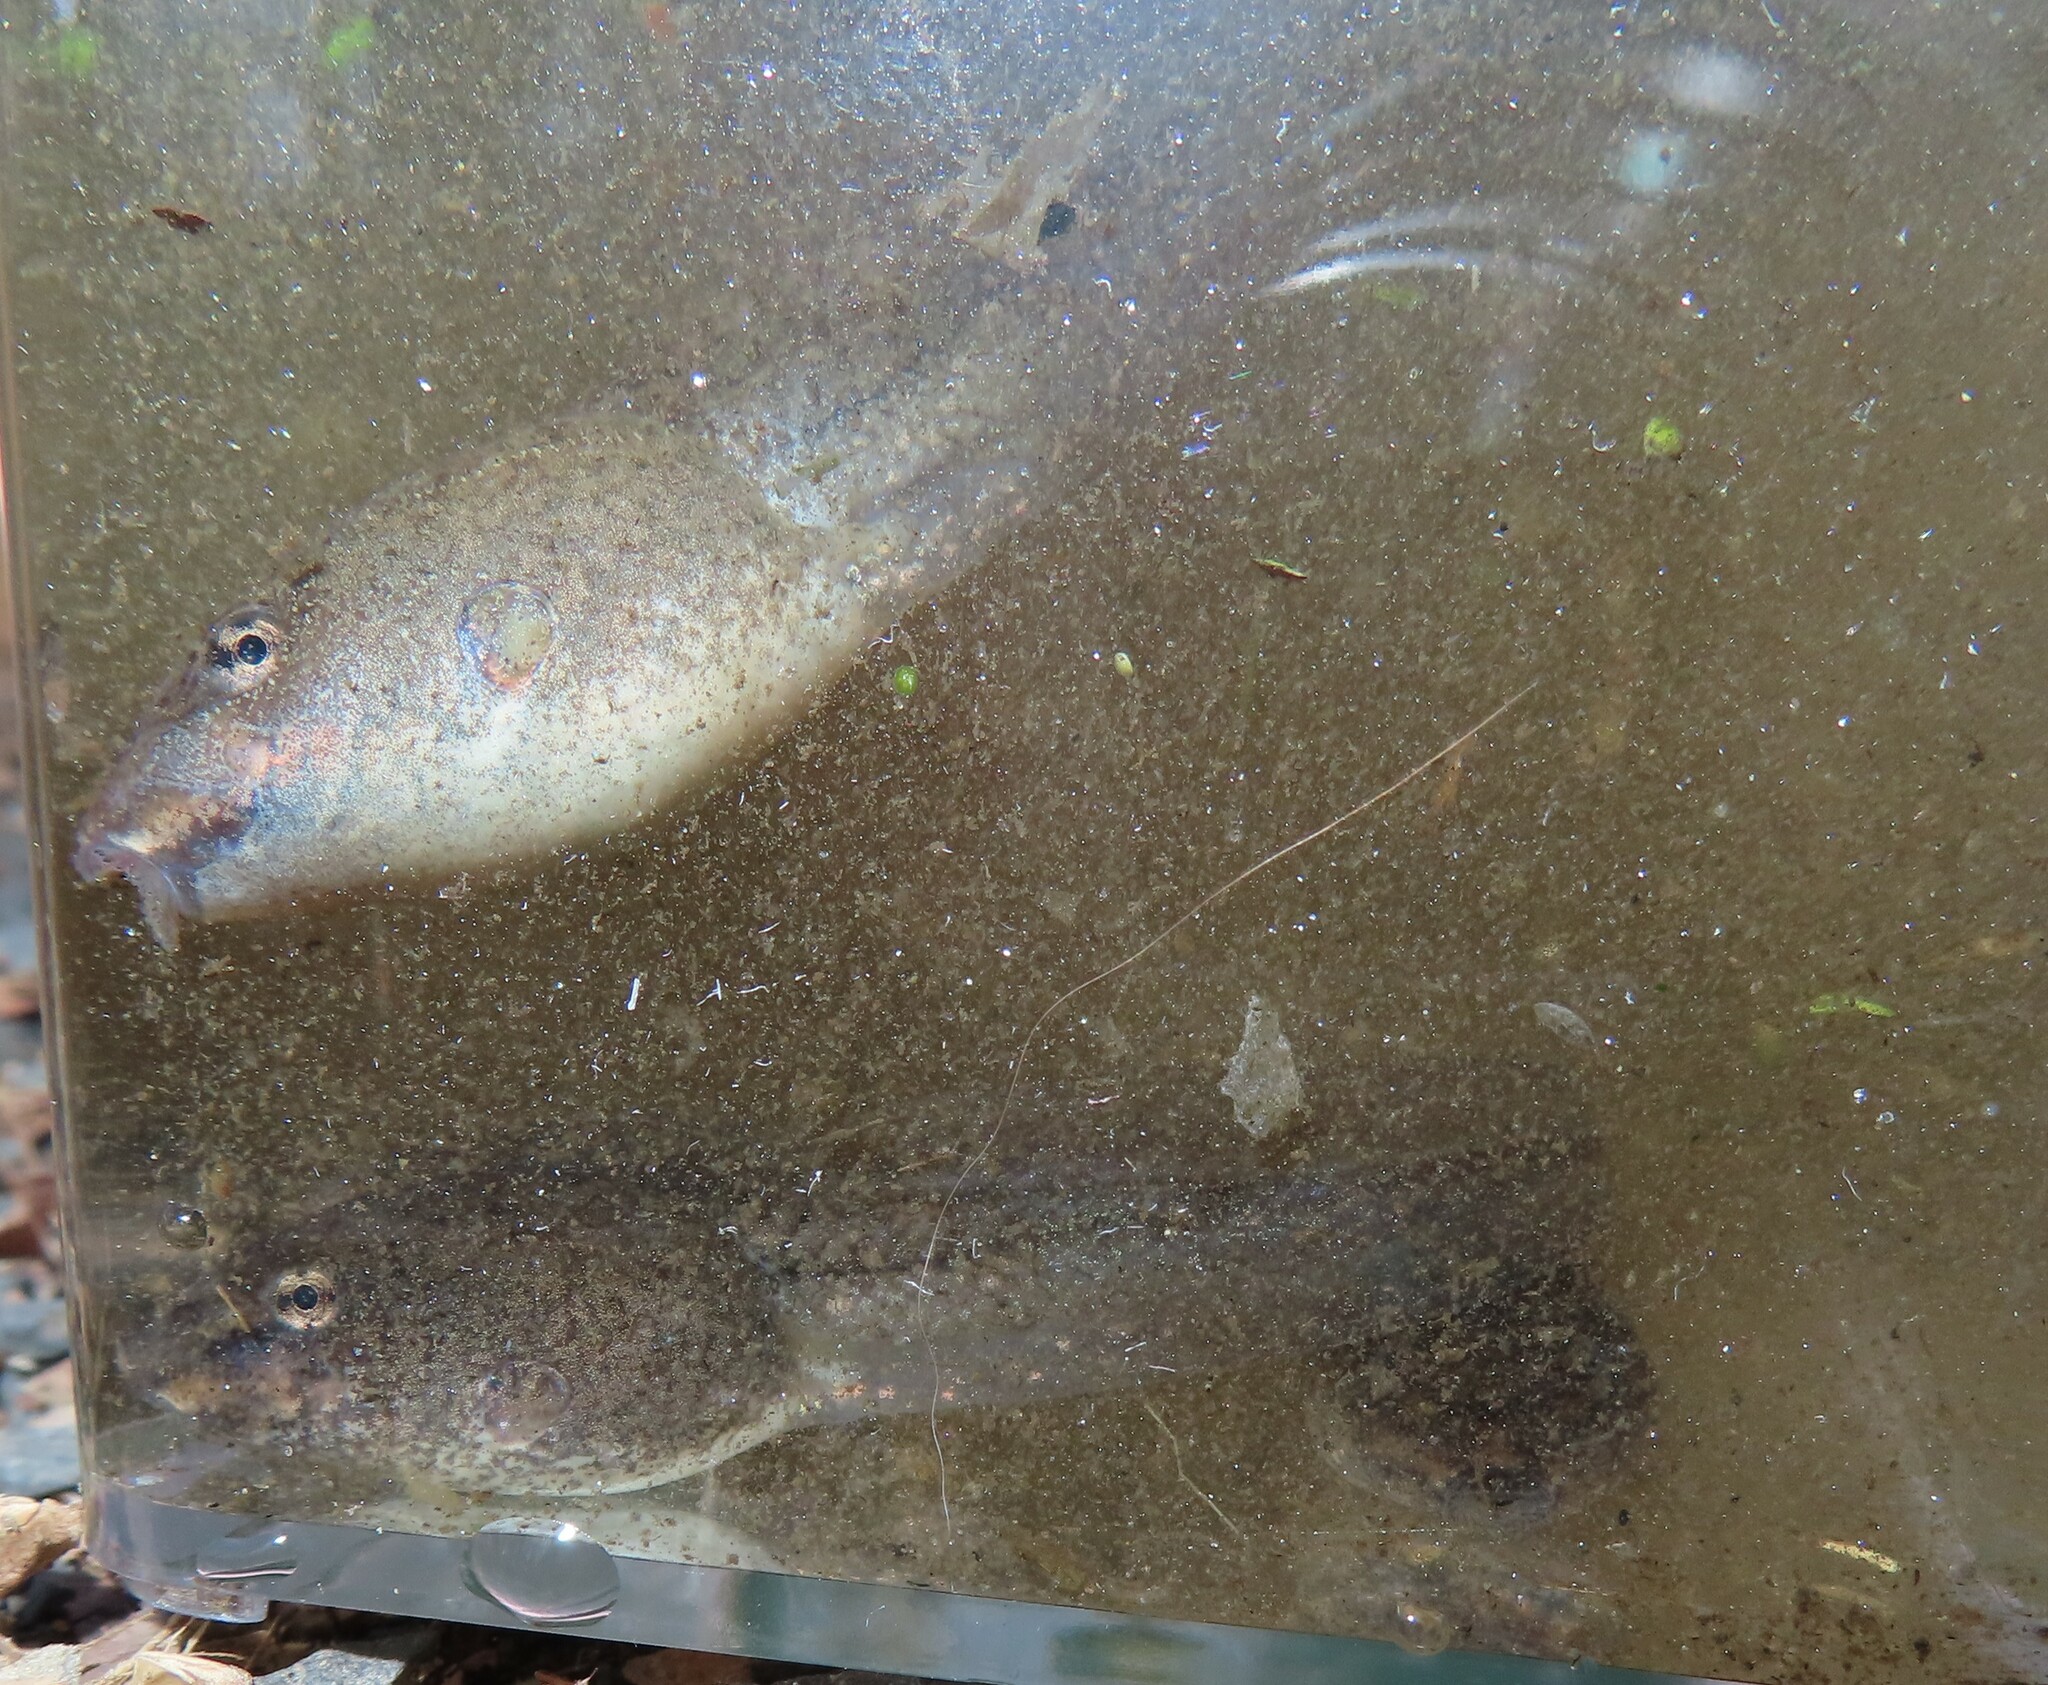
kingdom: Animalia
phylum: Chordata
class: Amphibia
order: Anura
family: Ranidae
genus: Lithobates
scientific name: Lithobates clamitans
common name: Green frog
